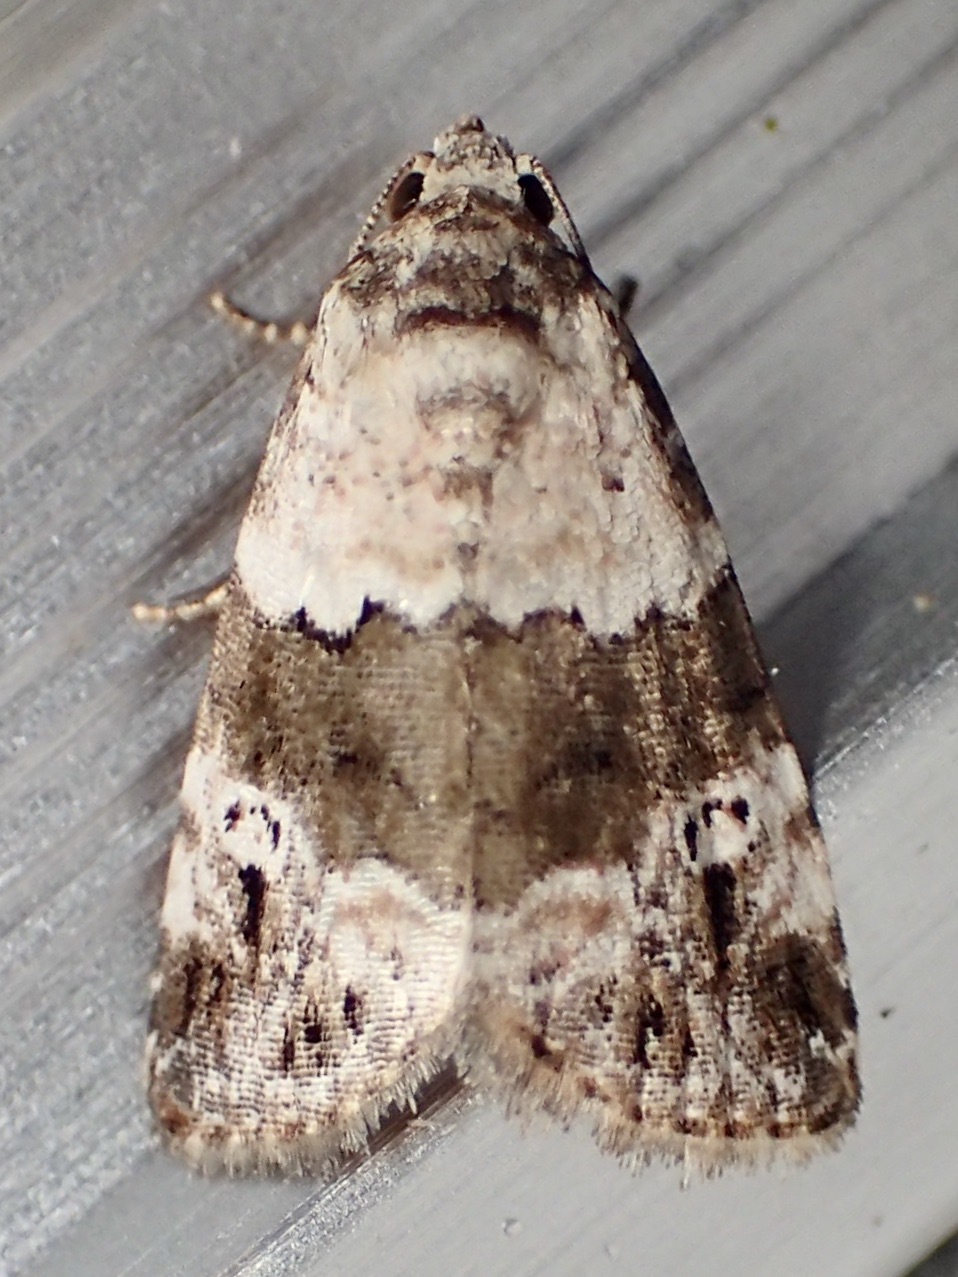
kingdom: Animalia
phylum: Arthropoda
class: Insecta
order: Lepidoptera
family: Noctuidae
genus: Maliattha
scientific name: Maliattha signifera
